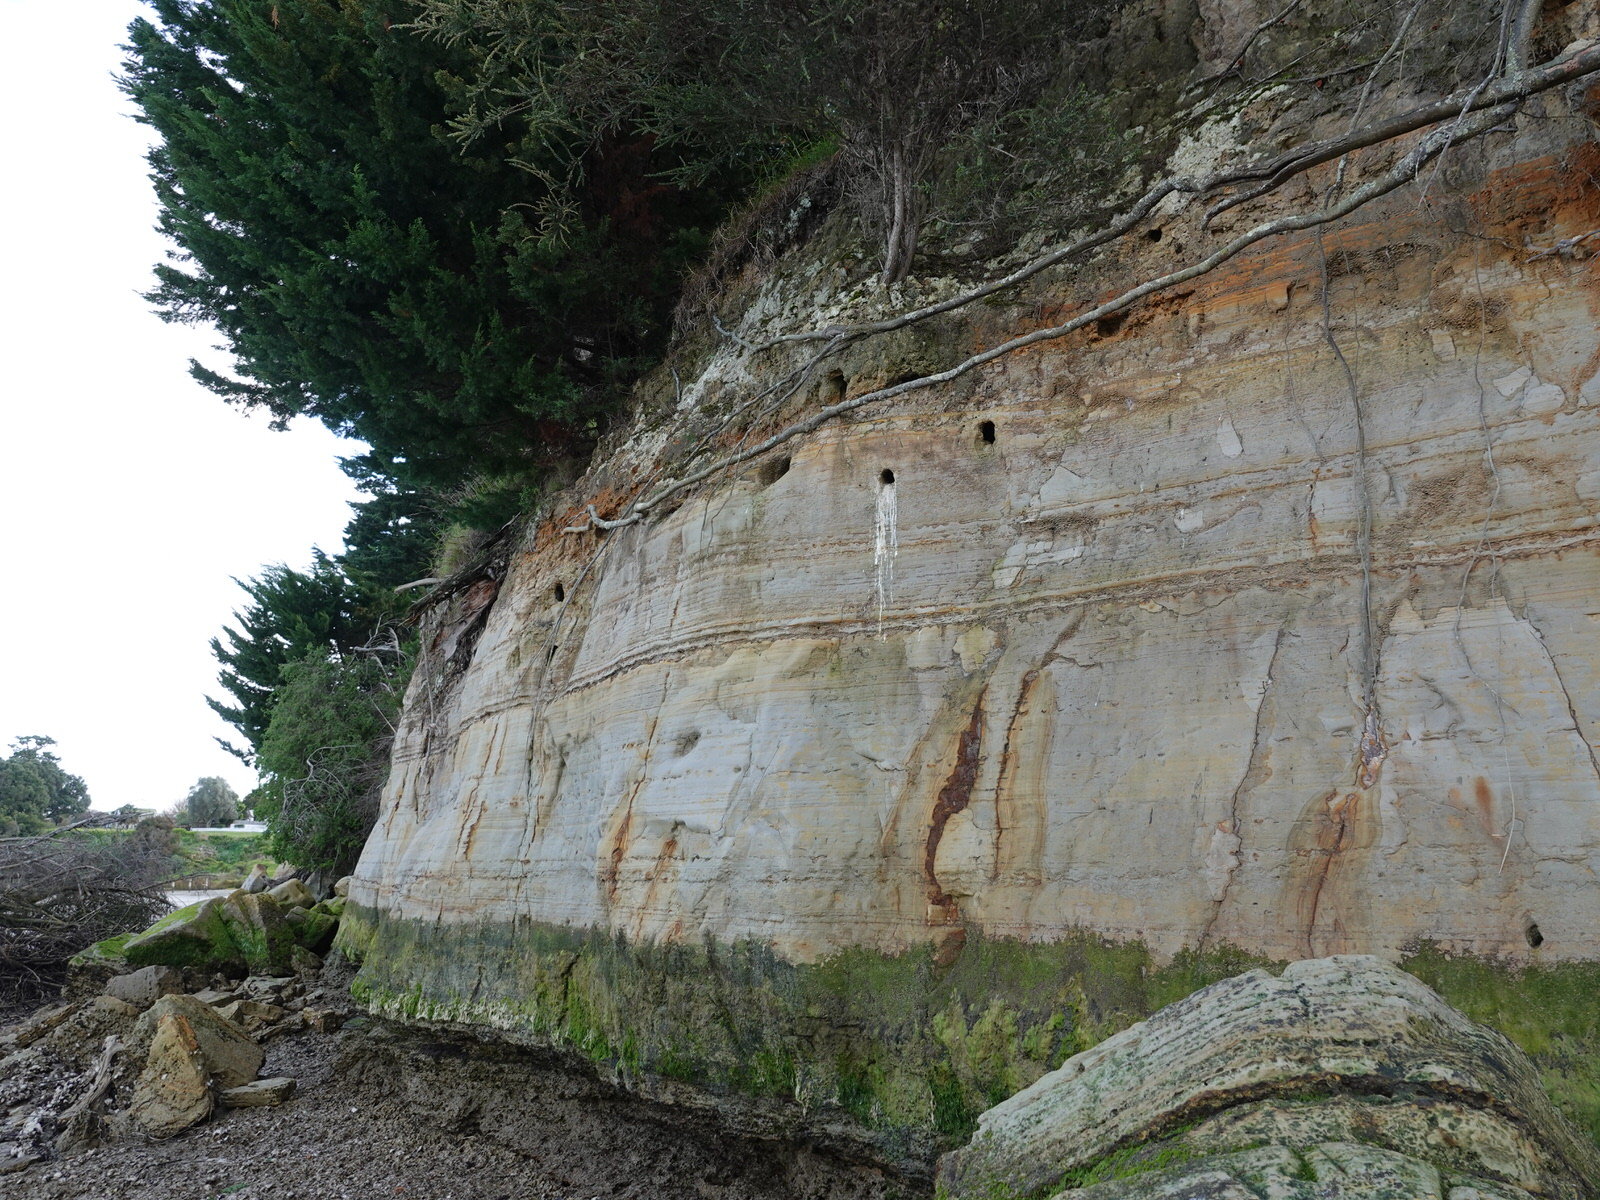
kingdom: Animalia
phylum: Chordata
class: Aves
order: Coraciiformes
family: Alcedinidae
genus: Todiramphus
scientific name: Todiramphus sanctus
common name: Sacred kingfisher
